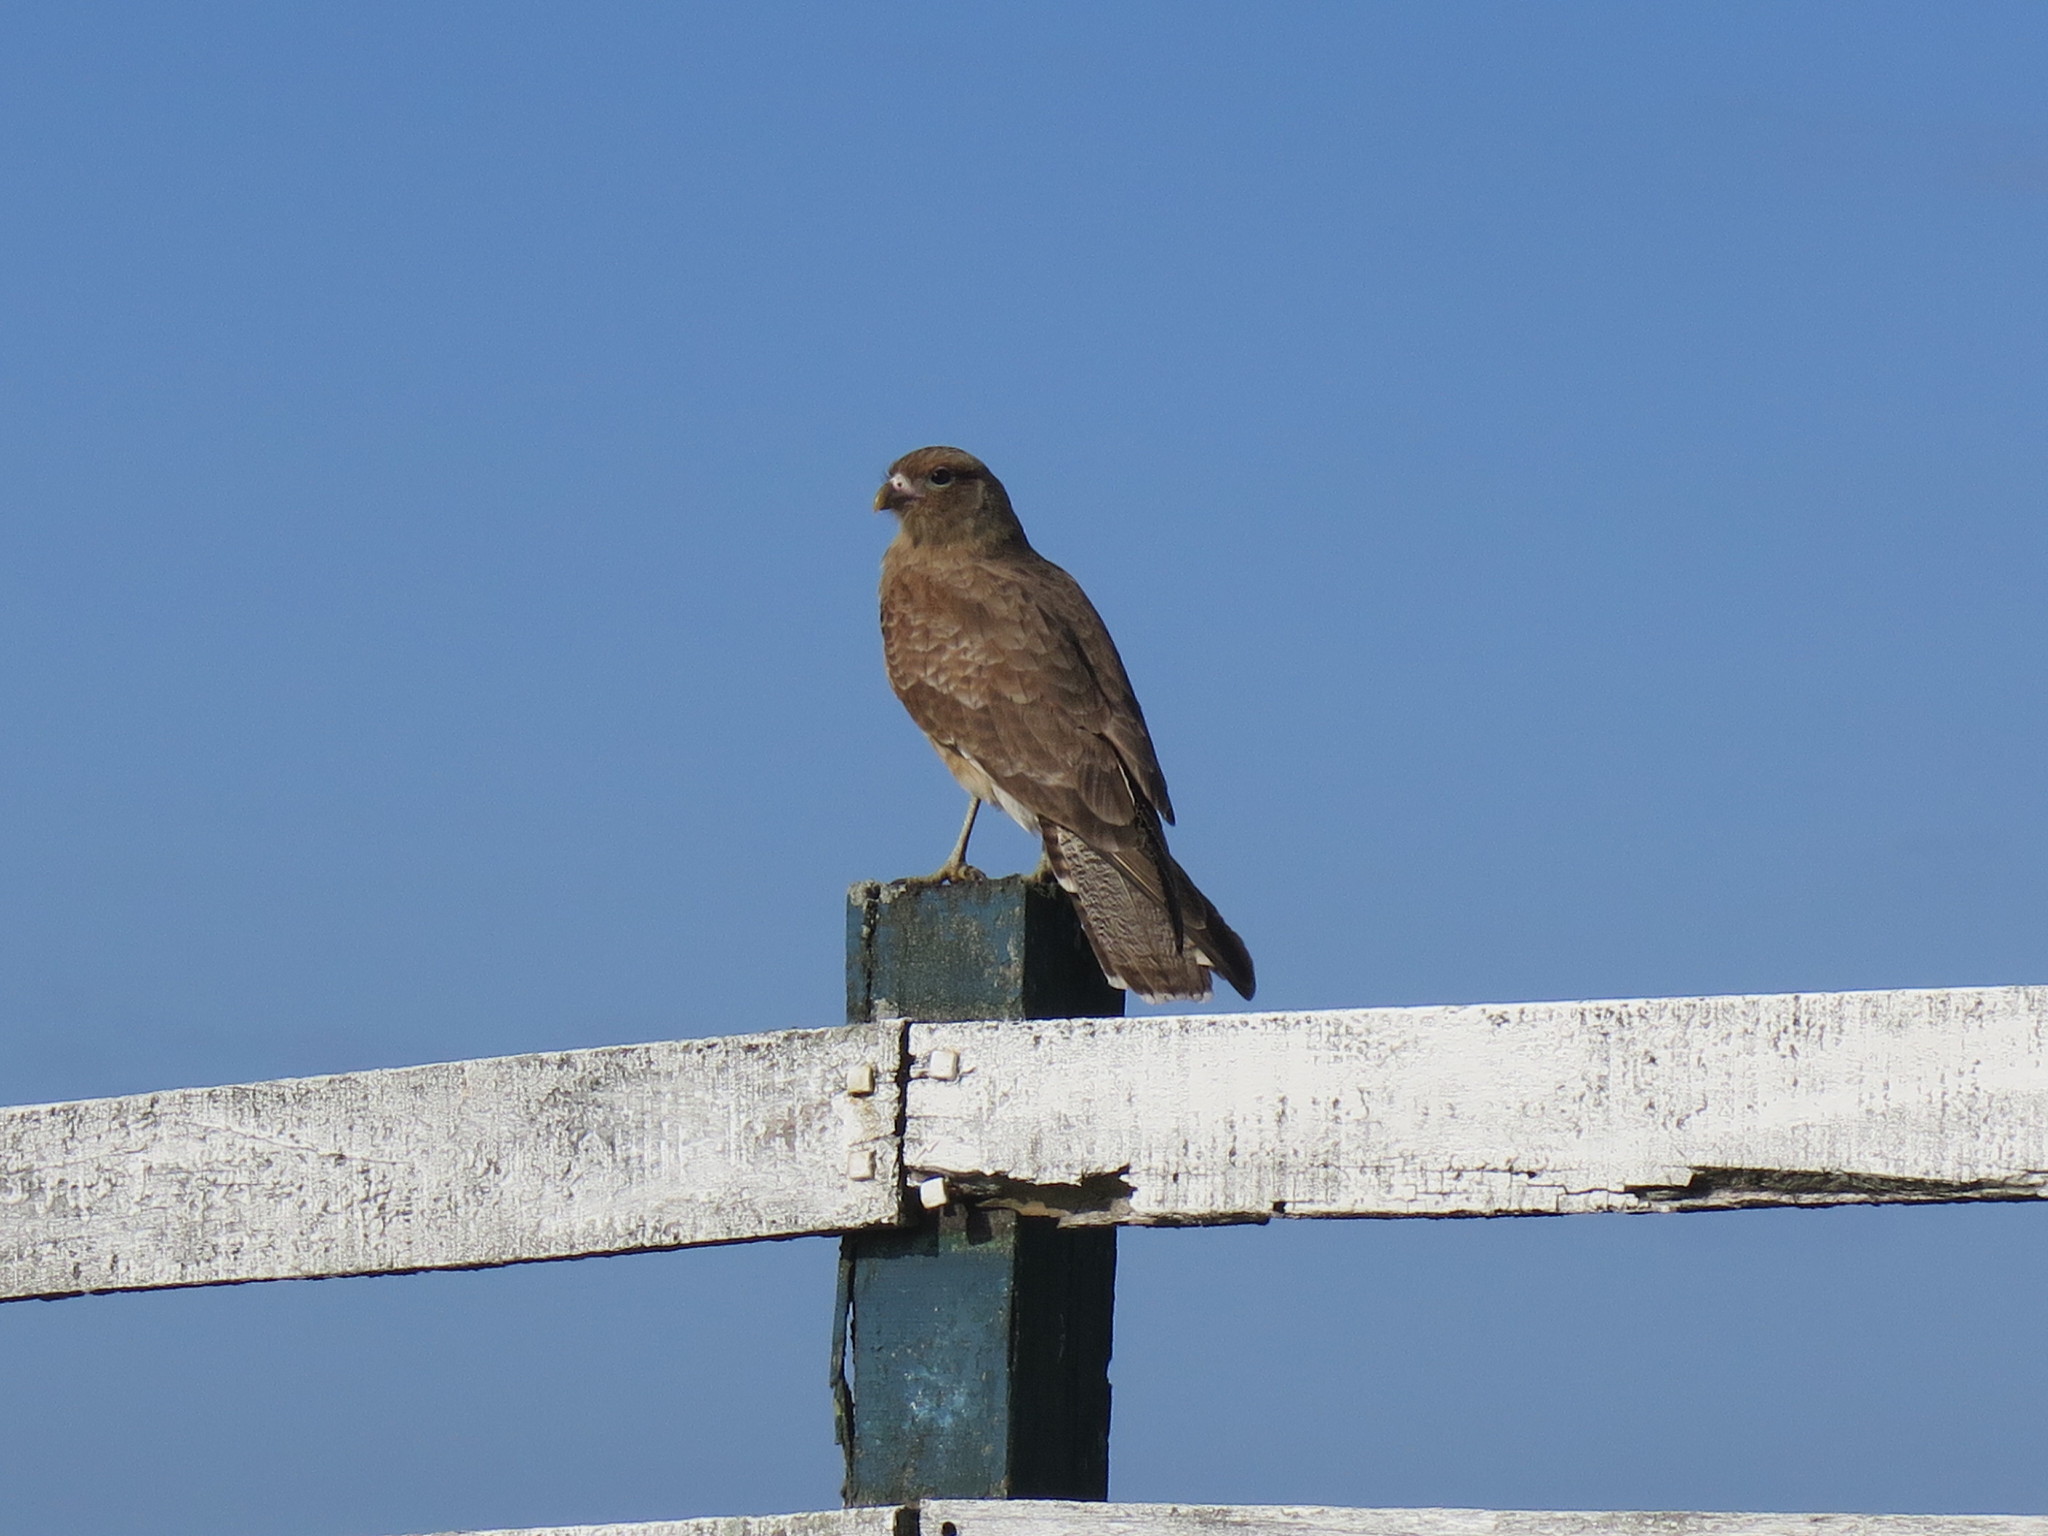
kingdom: Animalia
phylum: Chordata
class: Aves
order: Falconiformes
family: Falconidae
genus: Daptrius
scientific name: Daptrius
